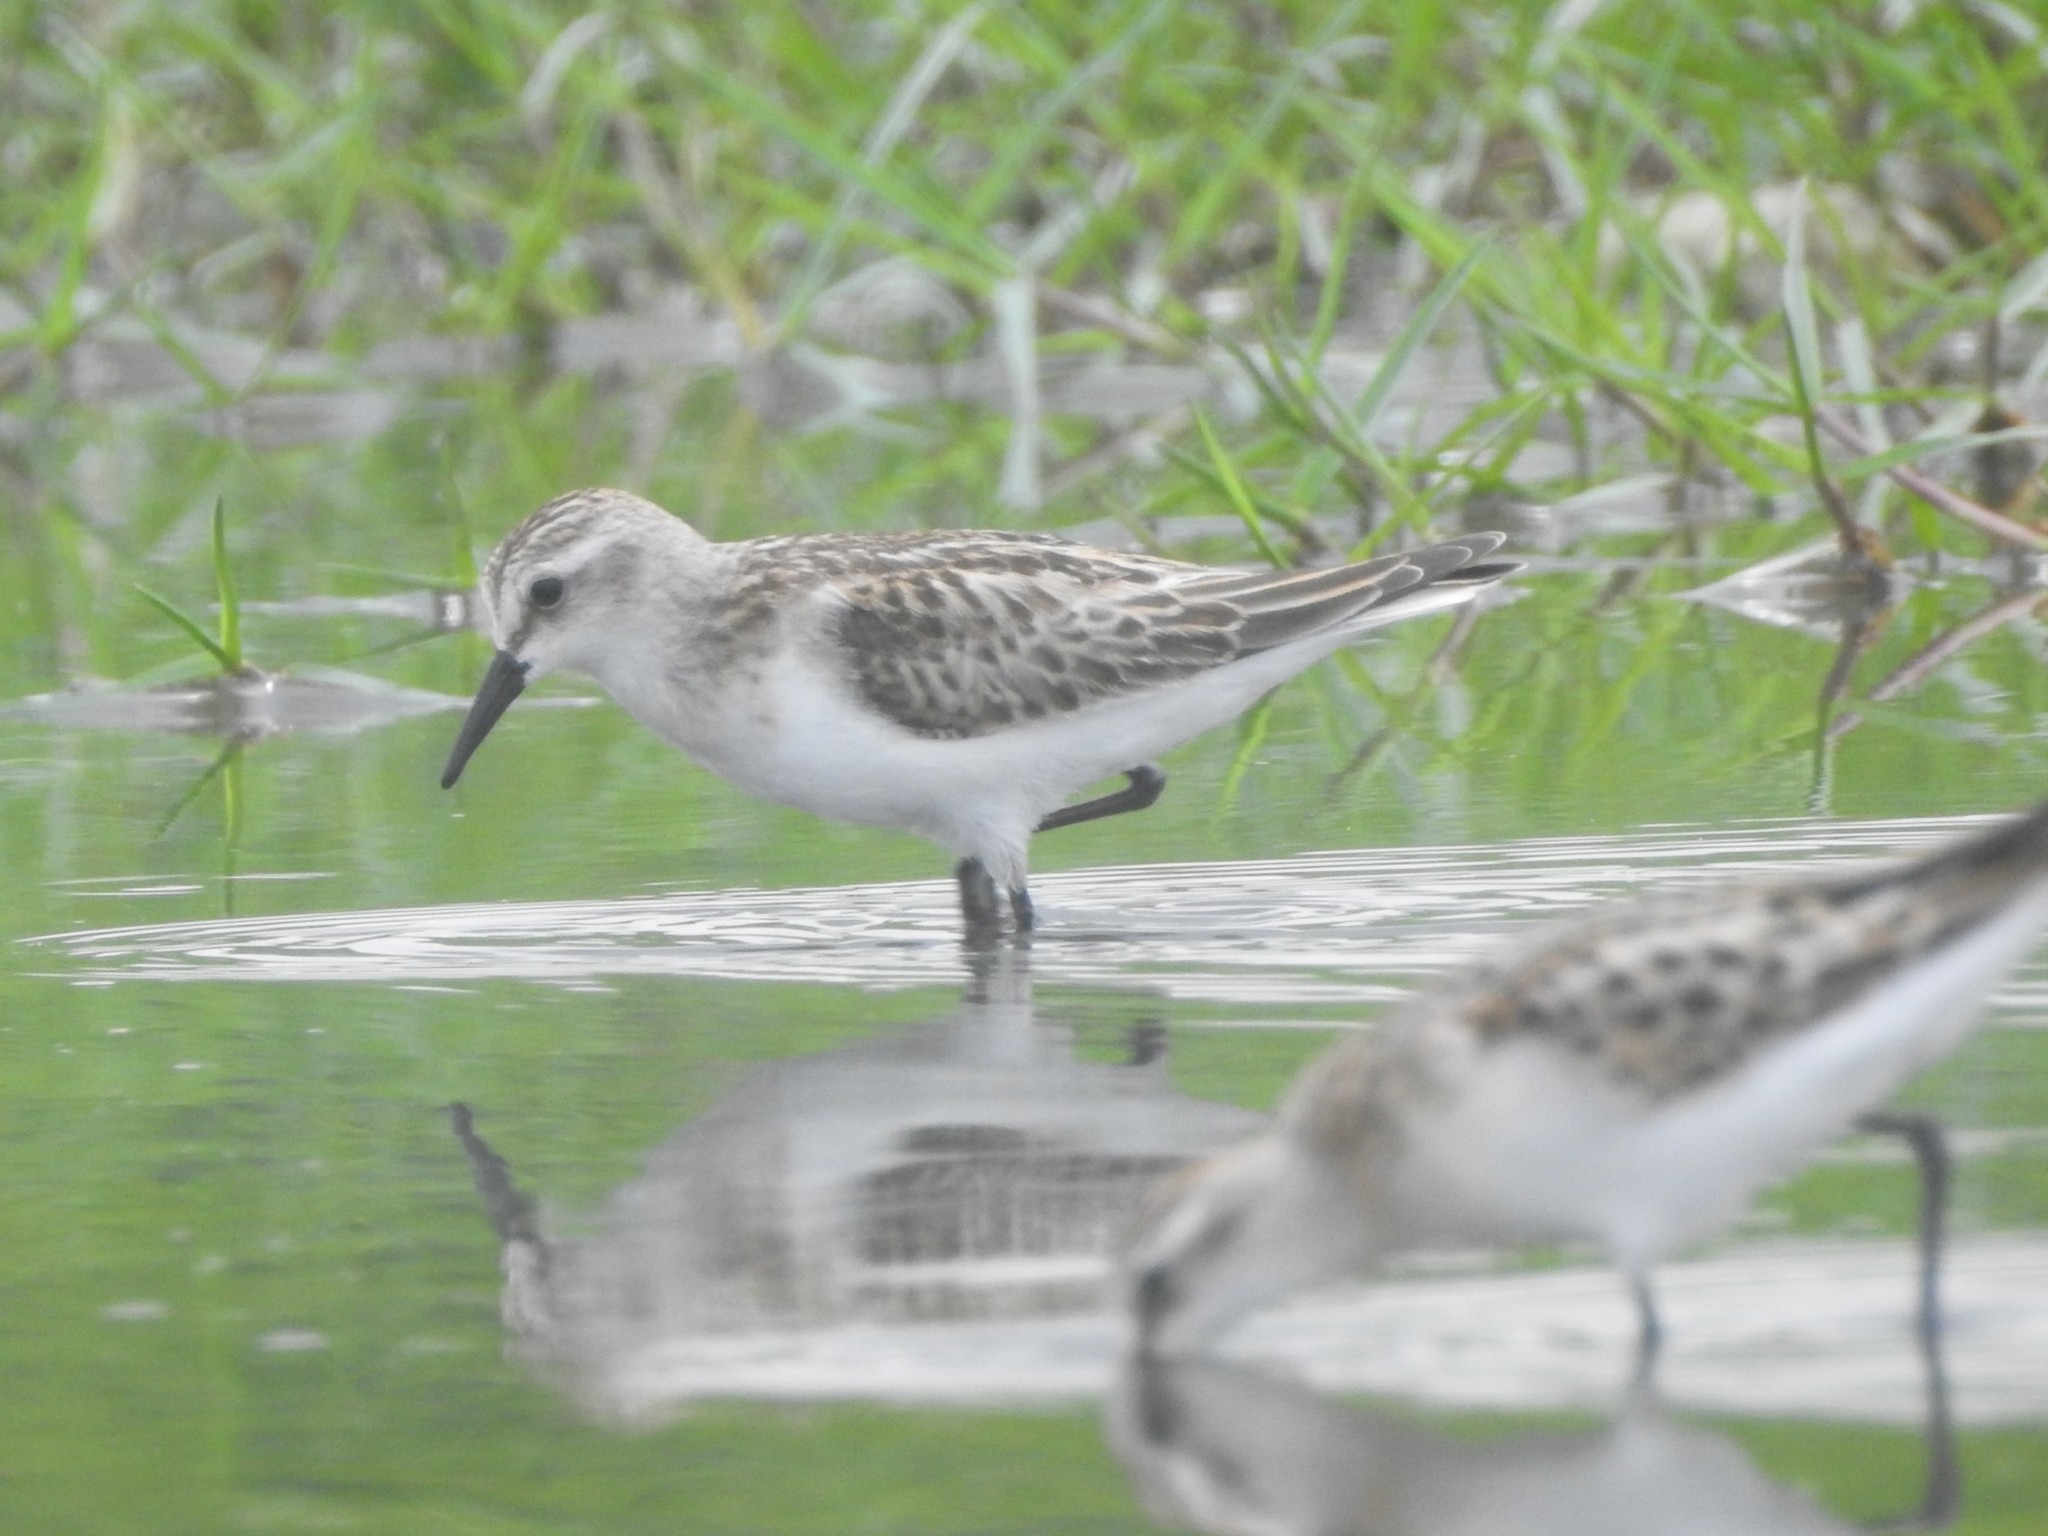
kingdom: Animalia
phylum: Chordata
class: Aves
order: Charadriiformes
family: Scolopacidae
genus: Calidris
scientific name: Calidris minuta
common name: Little stint
